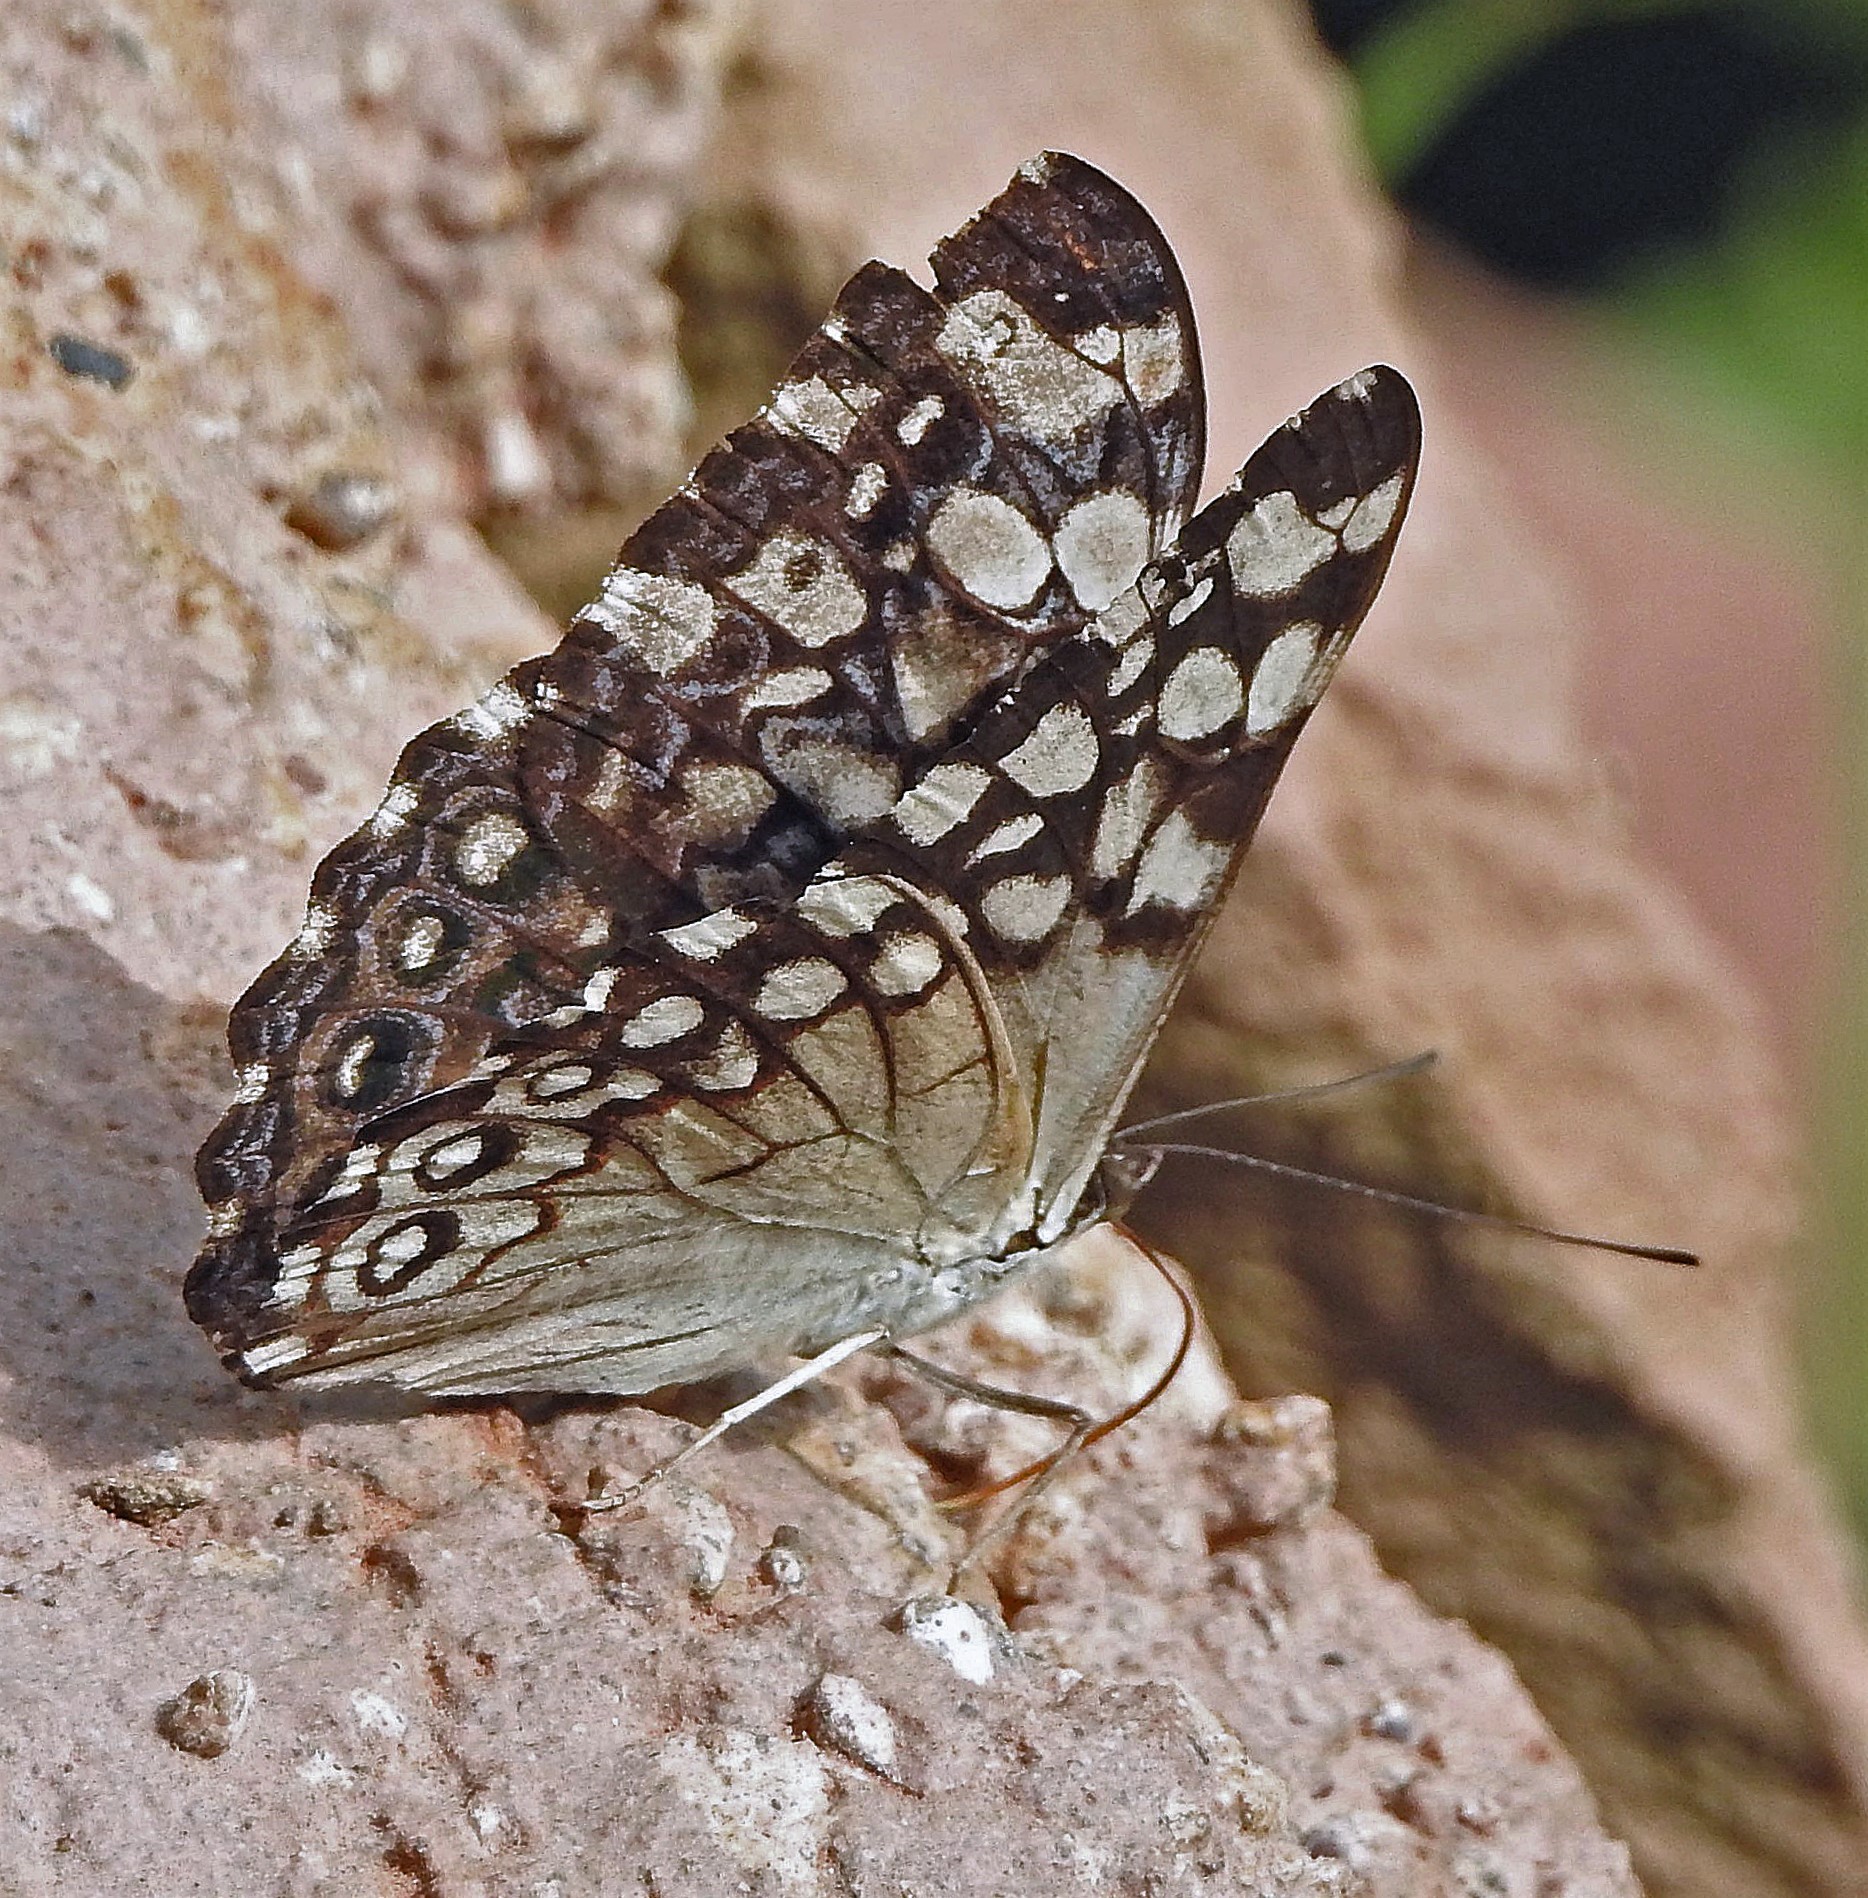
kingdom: Animalia
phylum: Arthropoda
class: Insecta
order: Lepidoptera
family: Nymphalidae
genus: Hamadryas
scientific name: Hamadryas epinome
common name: Epinome cracker
